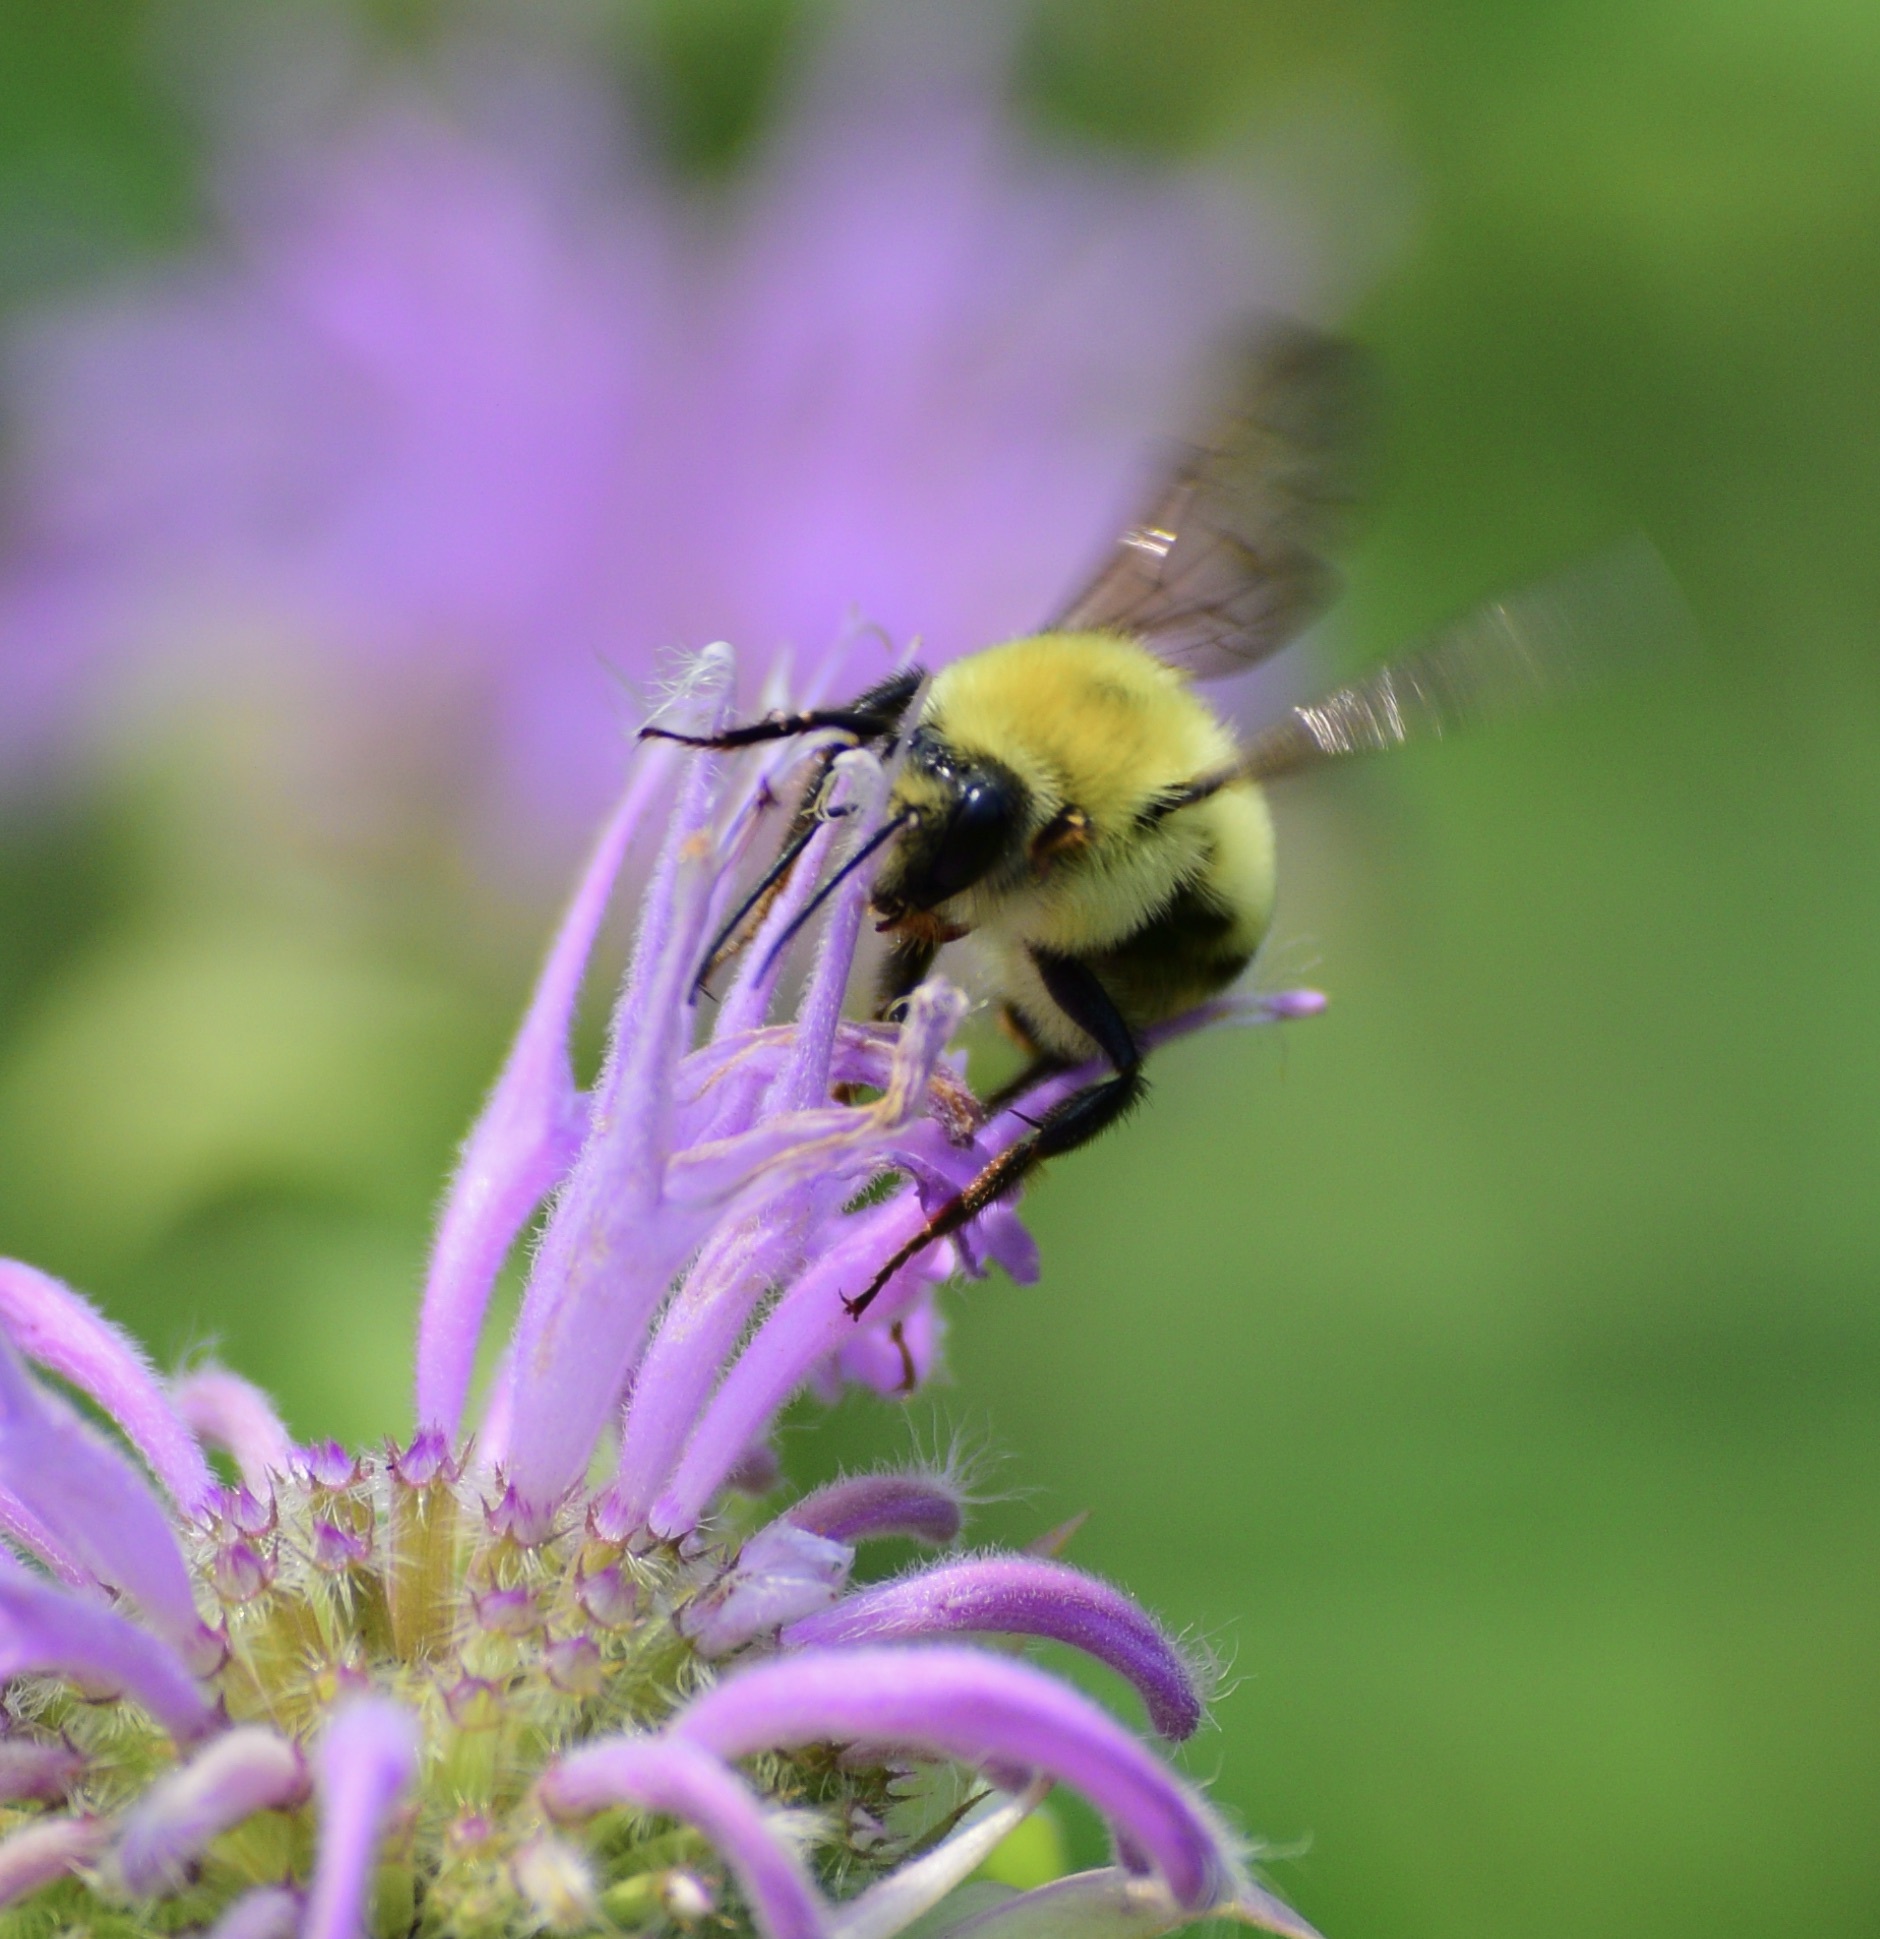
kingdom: Animalia
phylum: Arthropoda
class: Insecta
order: Hymenoptera
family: Apidae
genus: Bombus
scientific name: Bombus bimaculatus
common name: Two-spotted bumble bee
